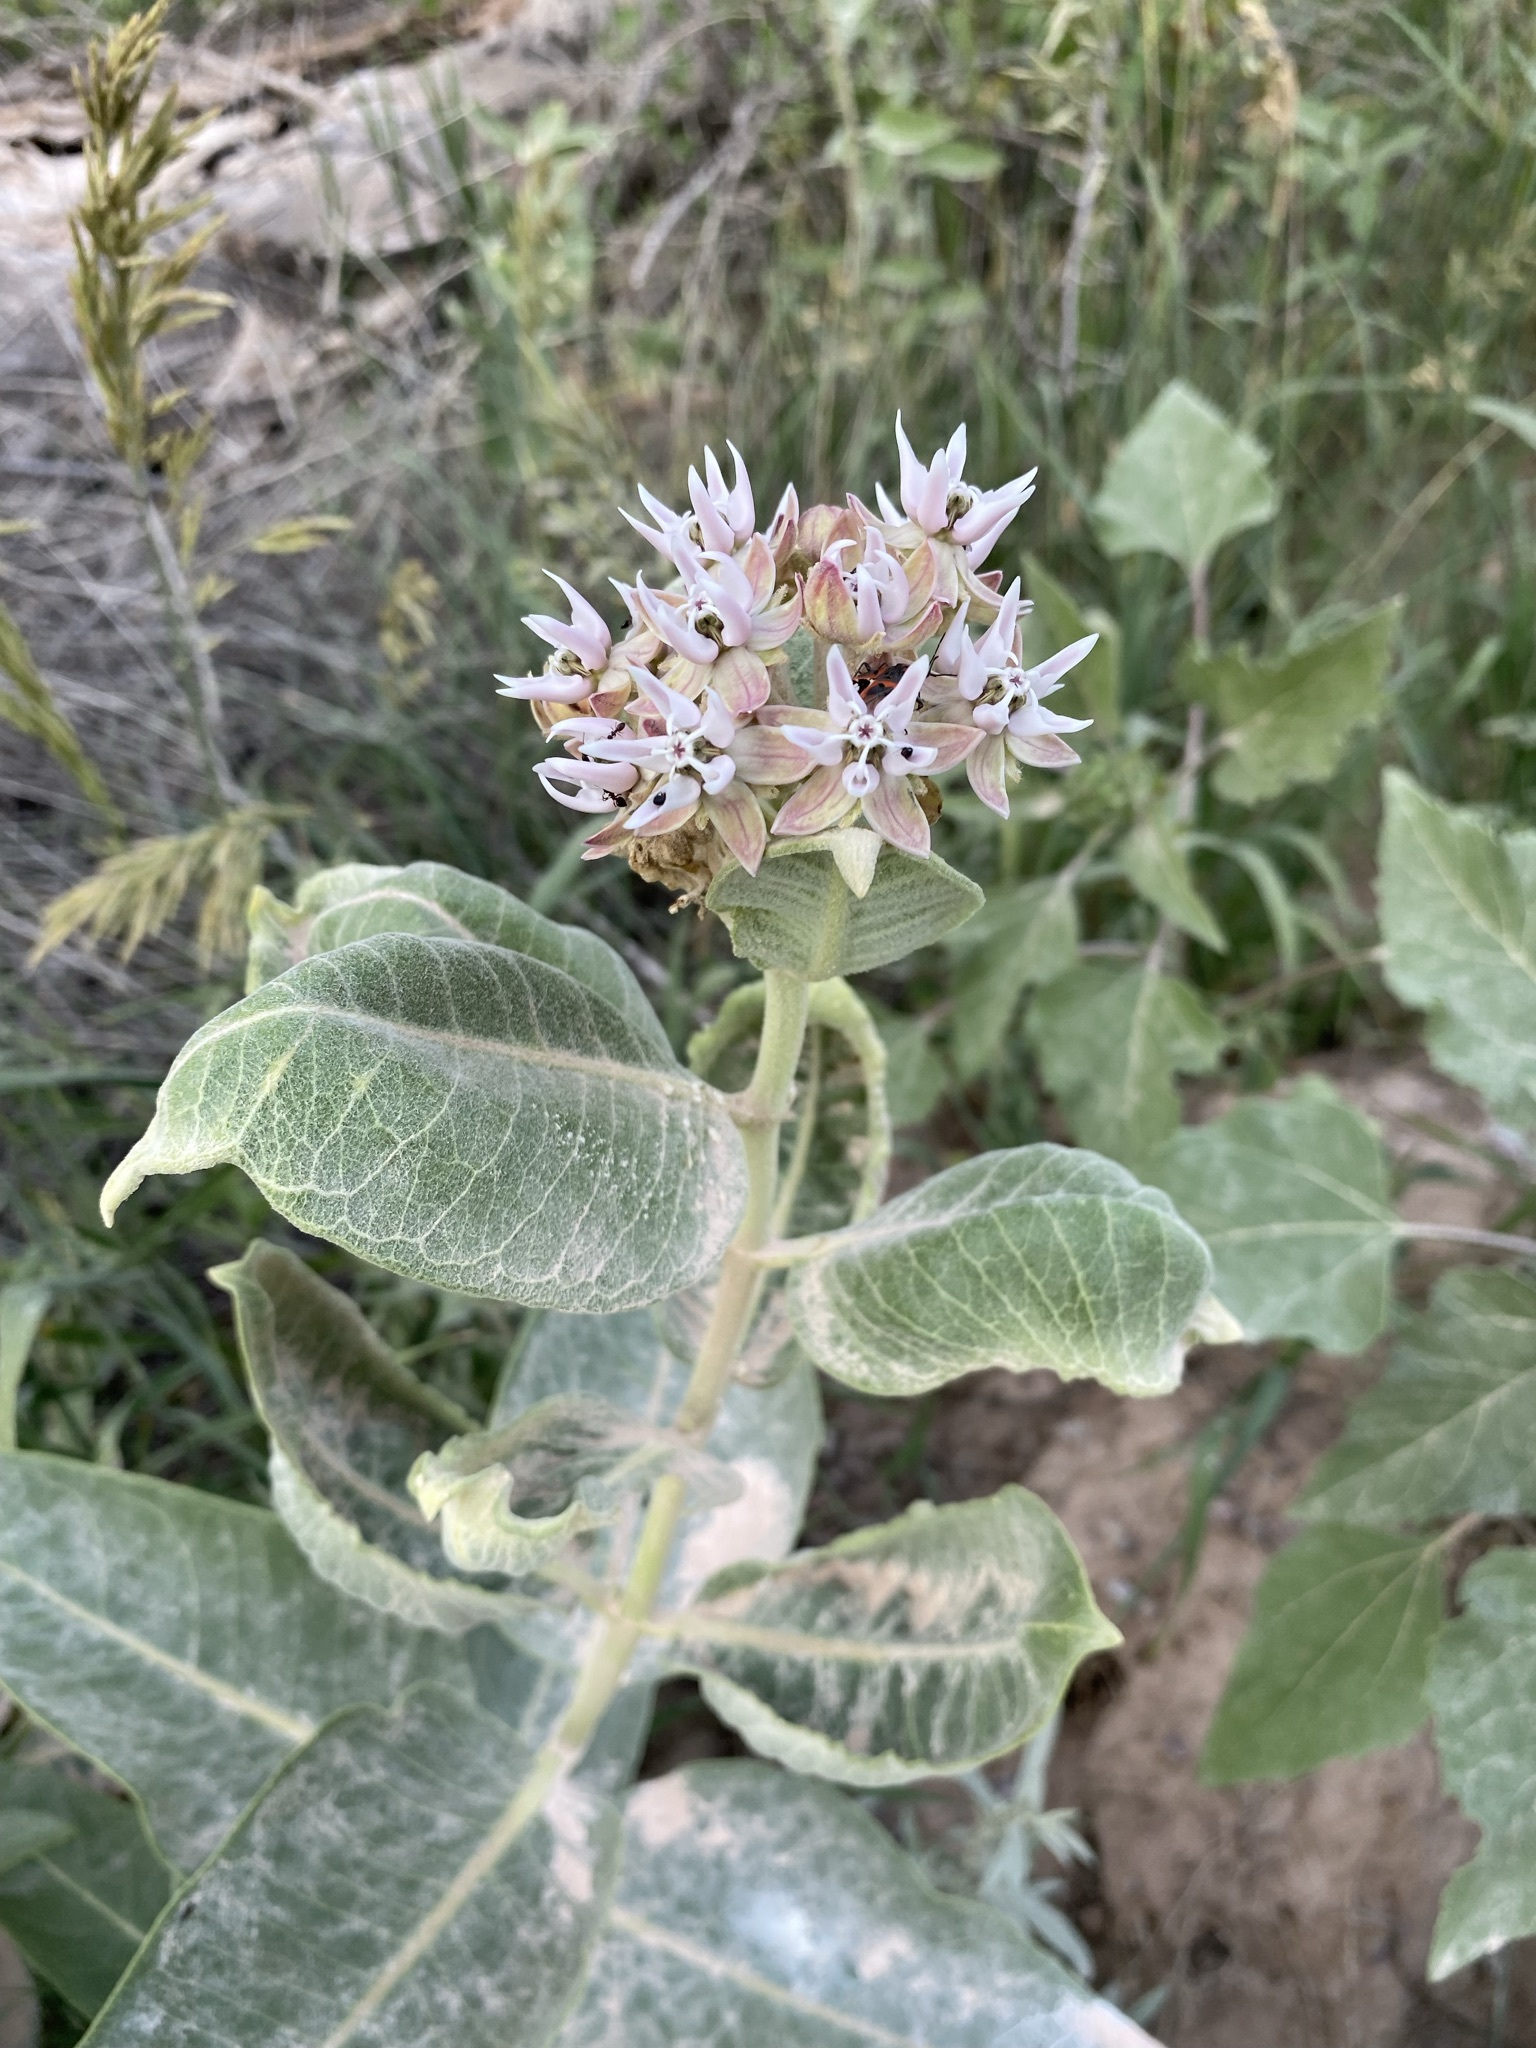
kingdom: Plantae
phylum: Tracheophyta
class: Magnoliopsida
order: Gentianales
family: Apocynaceae
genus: Asclepias
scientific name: Asclepias speciosa
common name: Showy milkweed
